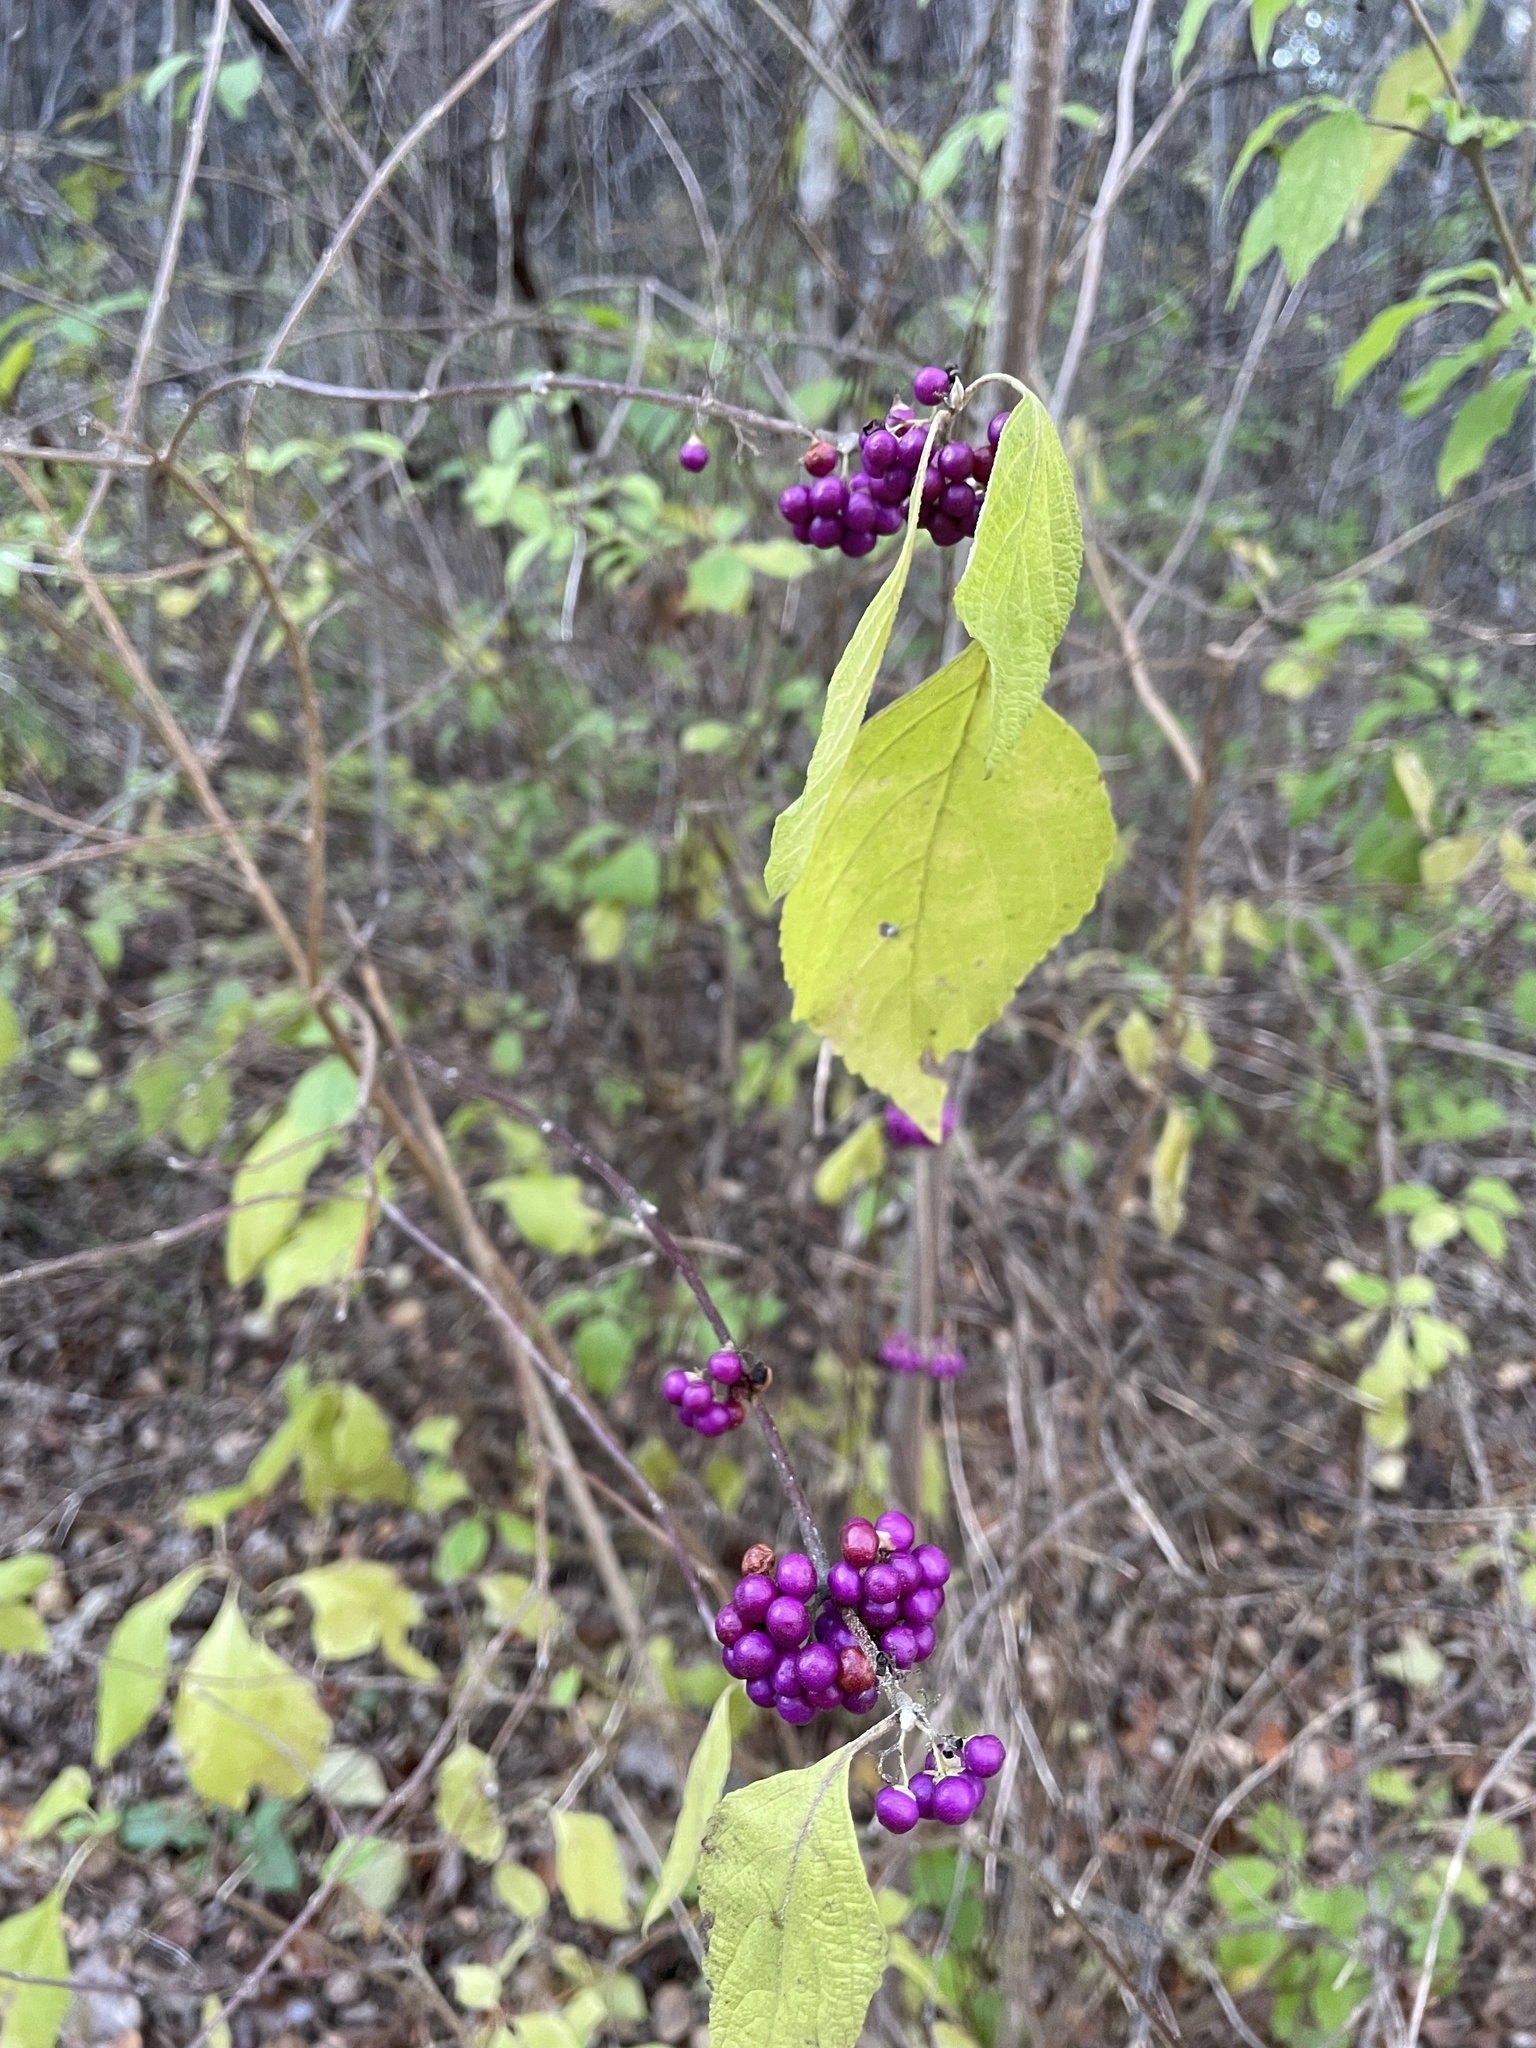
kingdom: Plantae
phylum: Tracheophyta
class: Magnoliopsida
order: Lamiales
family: Lamiaceae
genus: Callicarpa
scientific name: Callicarpa americana
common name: American beautyberry
